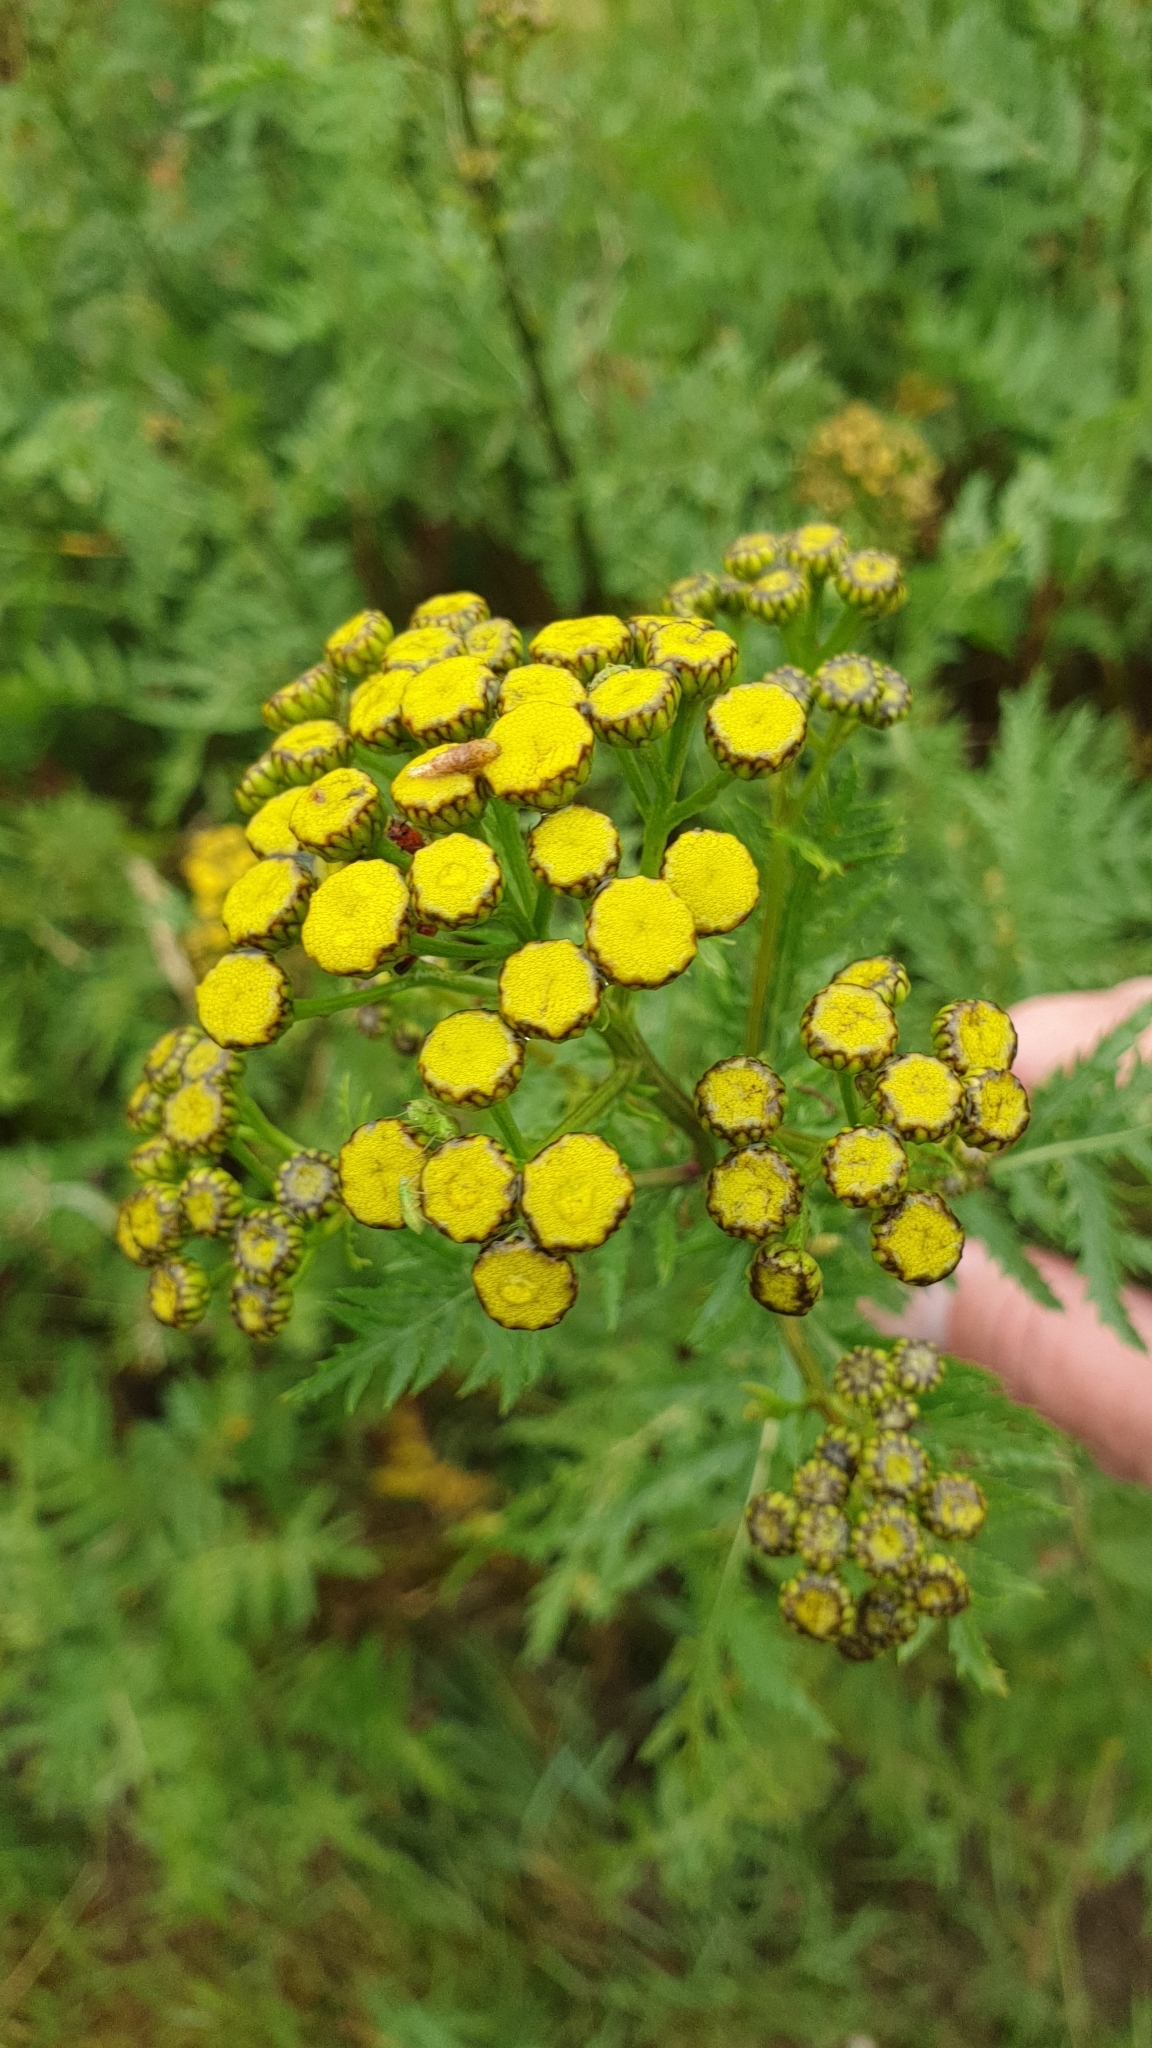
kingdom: Plantae
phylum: Tracheophyta
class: Magnoliopsida
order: Asterales
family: Asteraceae
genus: Tanacetum
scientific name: Tanacetum vulgare
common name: Common tansy
